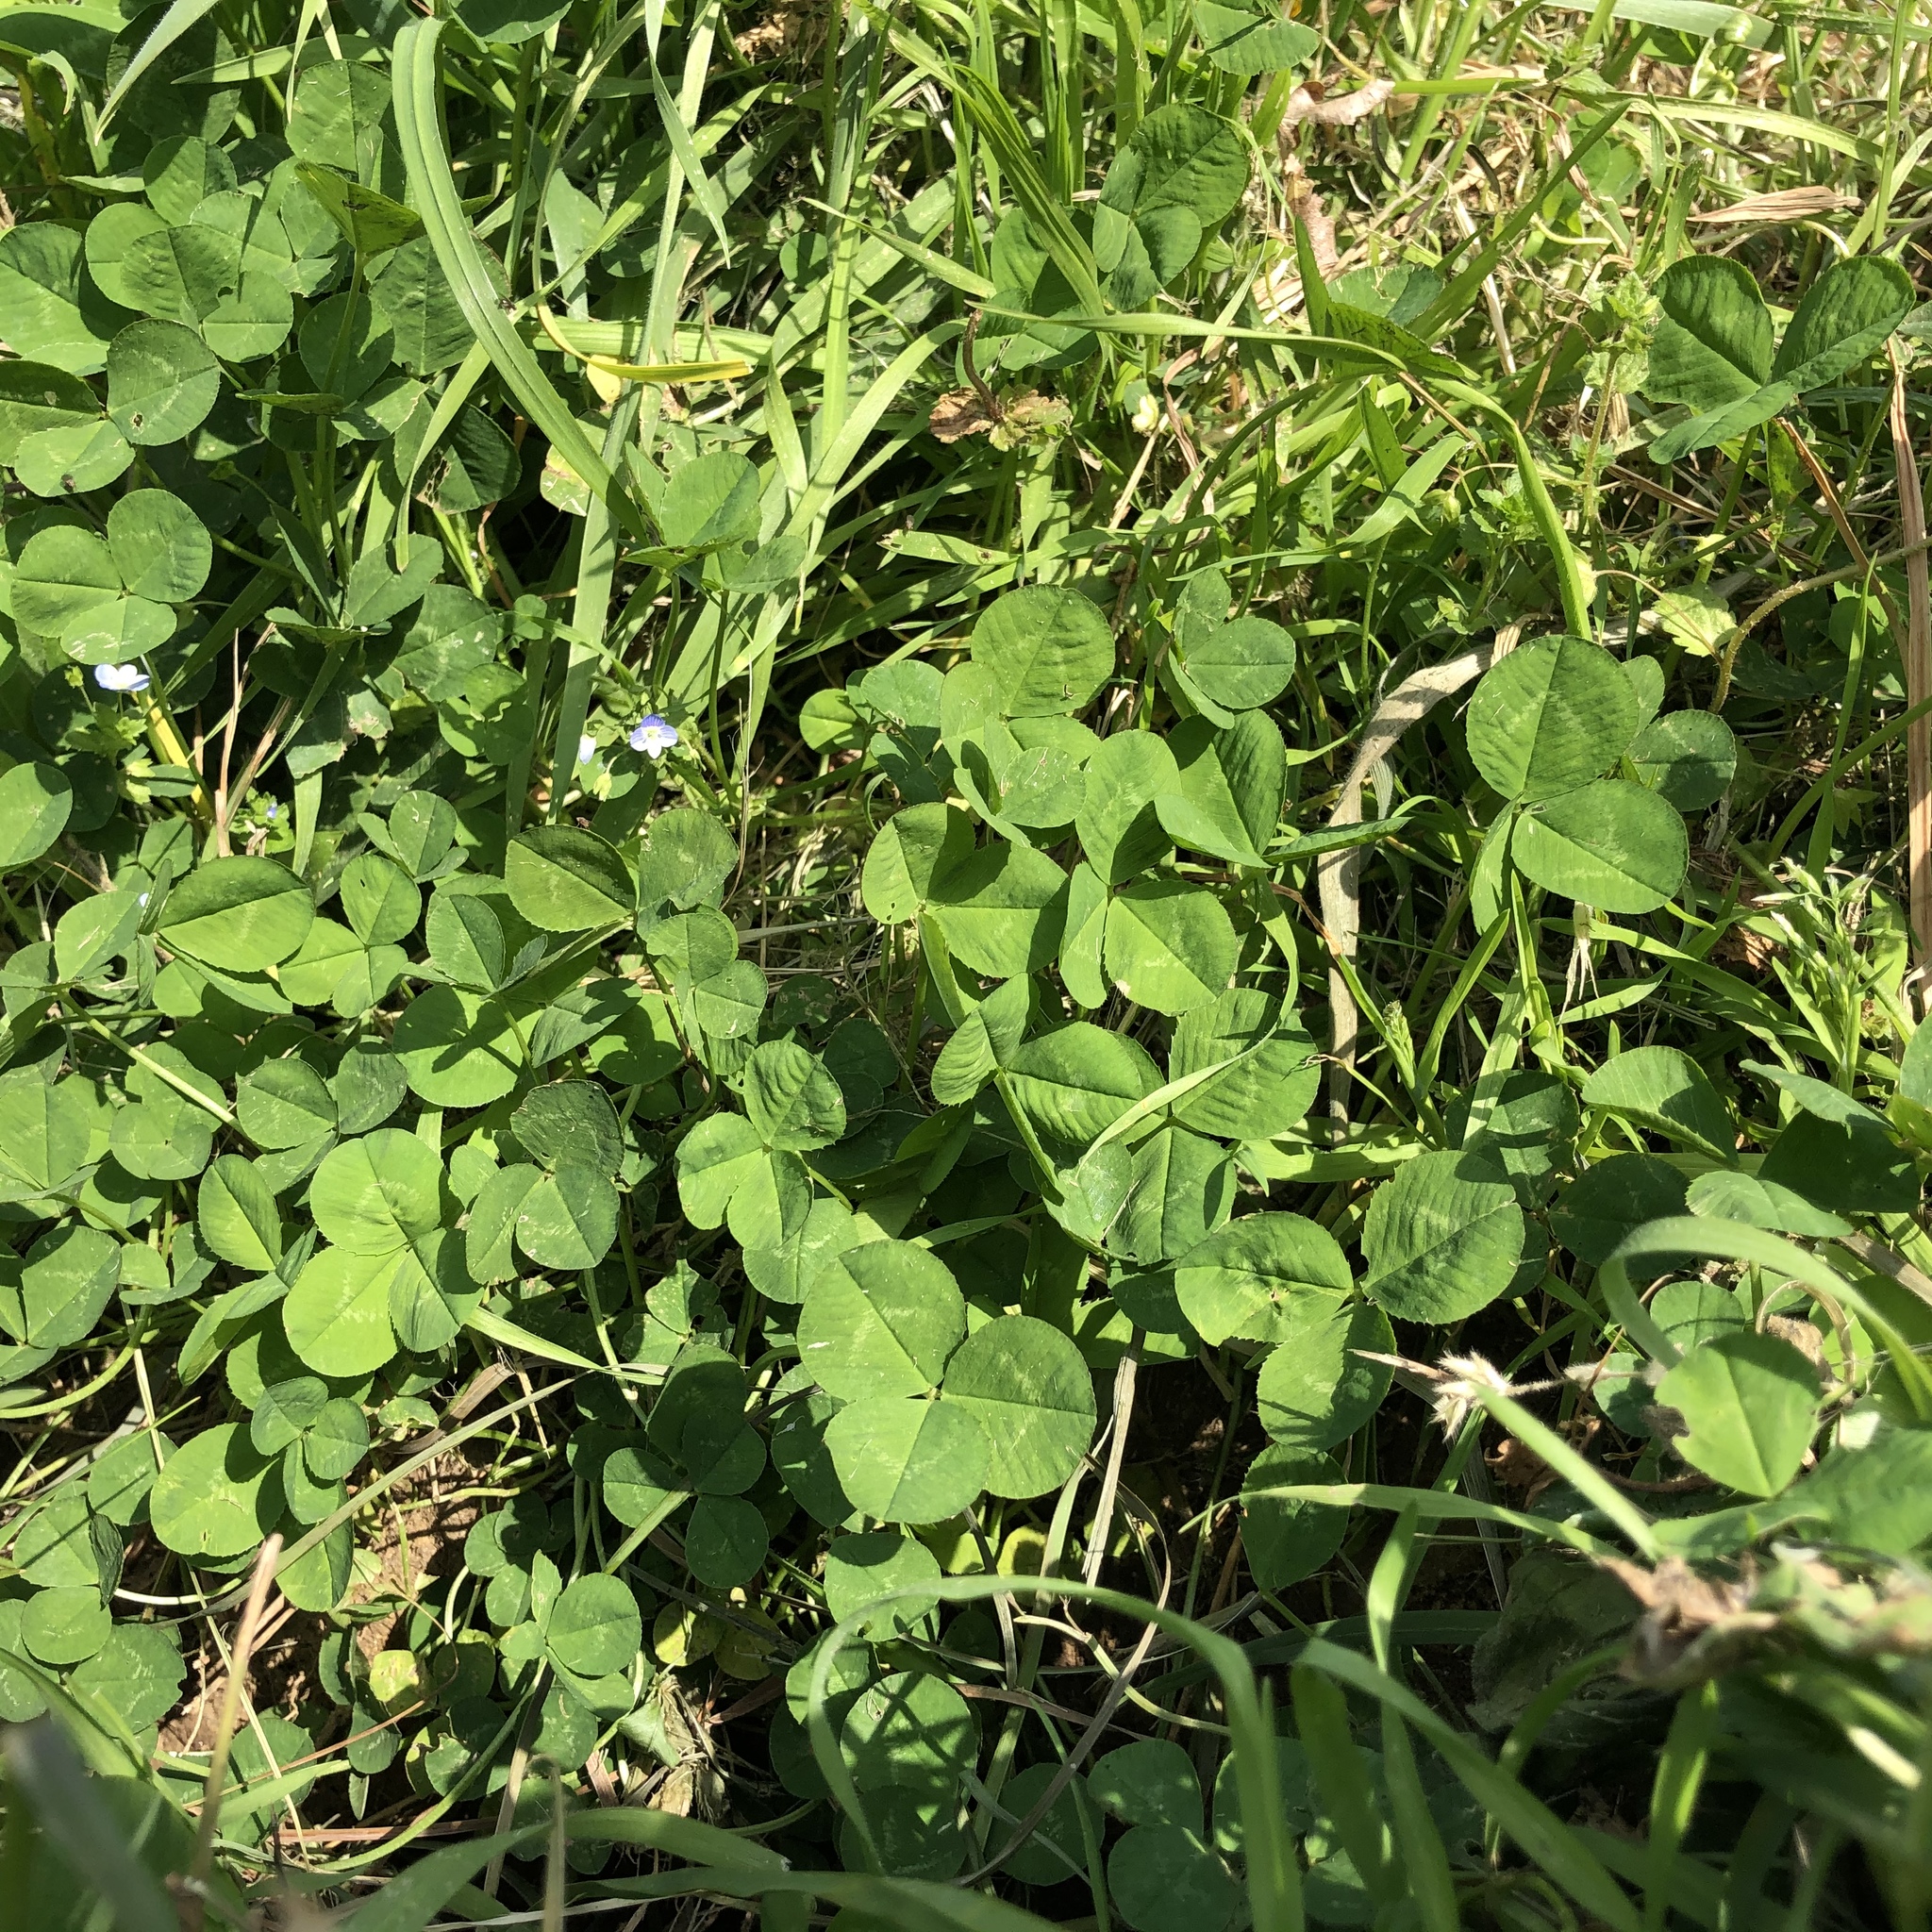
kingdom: Plantae
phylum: Tracheophyta
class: Magnoliopsida
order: Fabales
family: Fabaceae
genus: Trifolium
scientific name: Trifolium repens
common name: White clover
